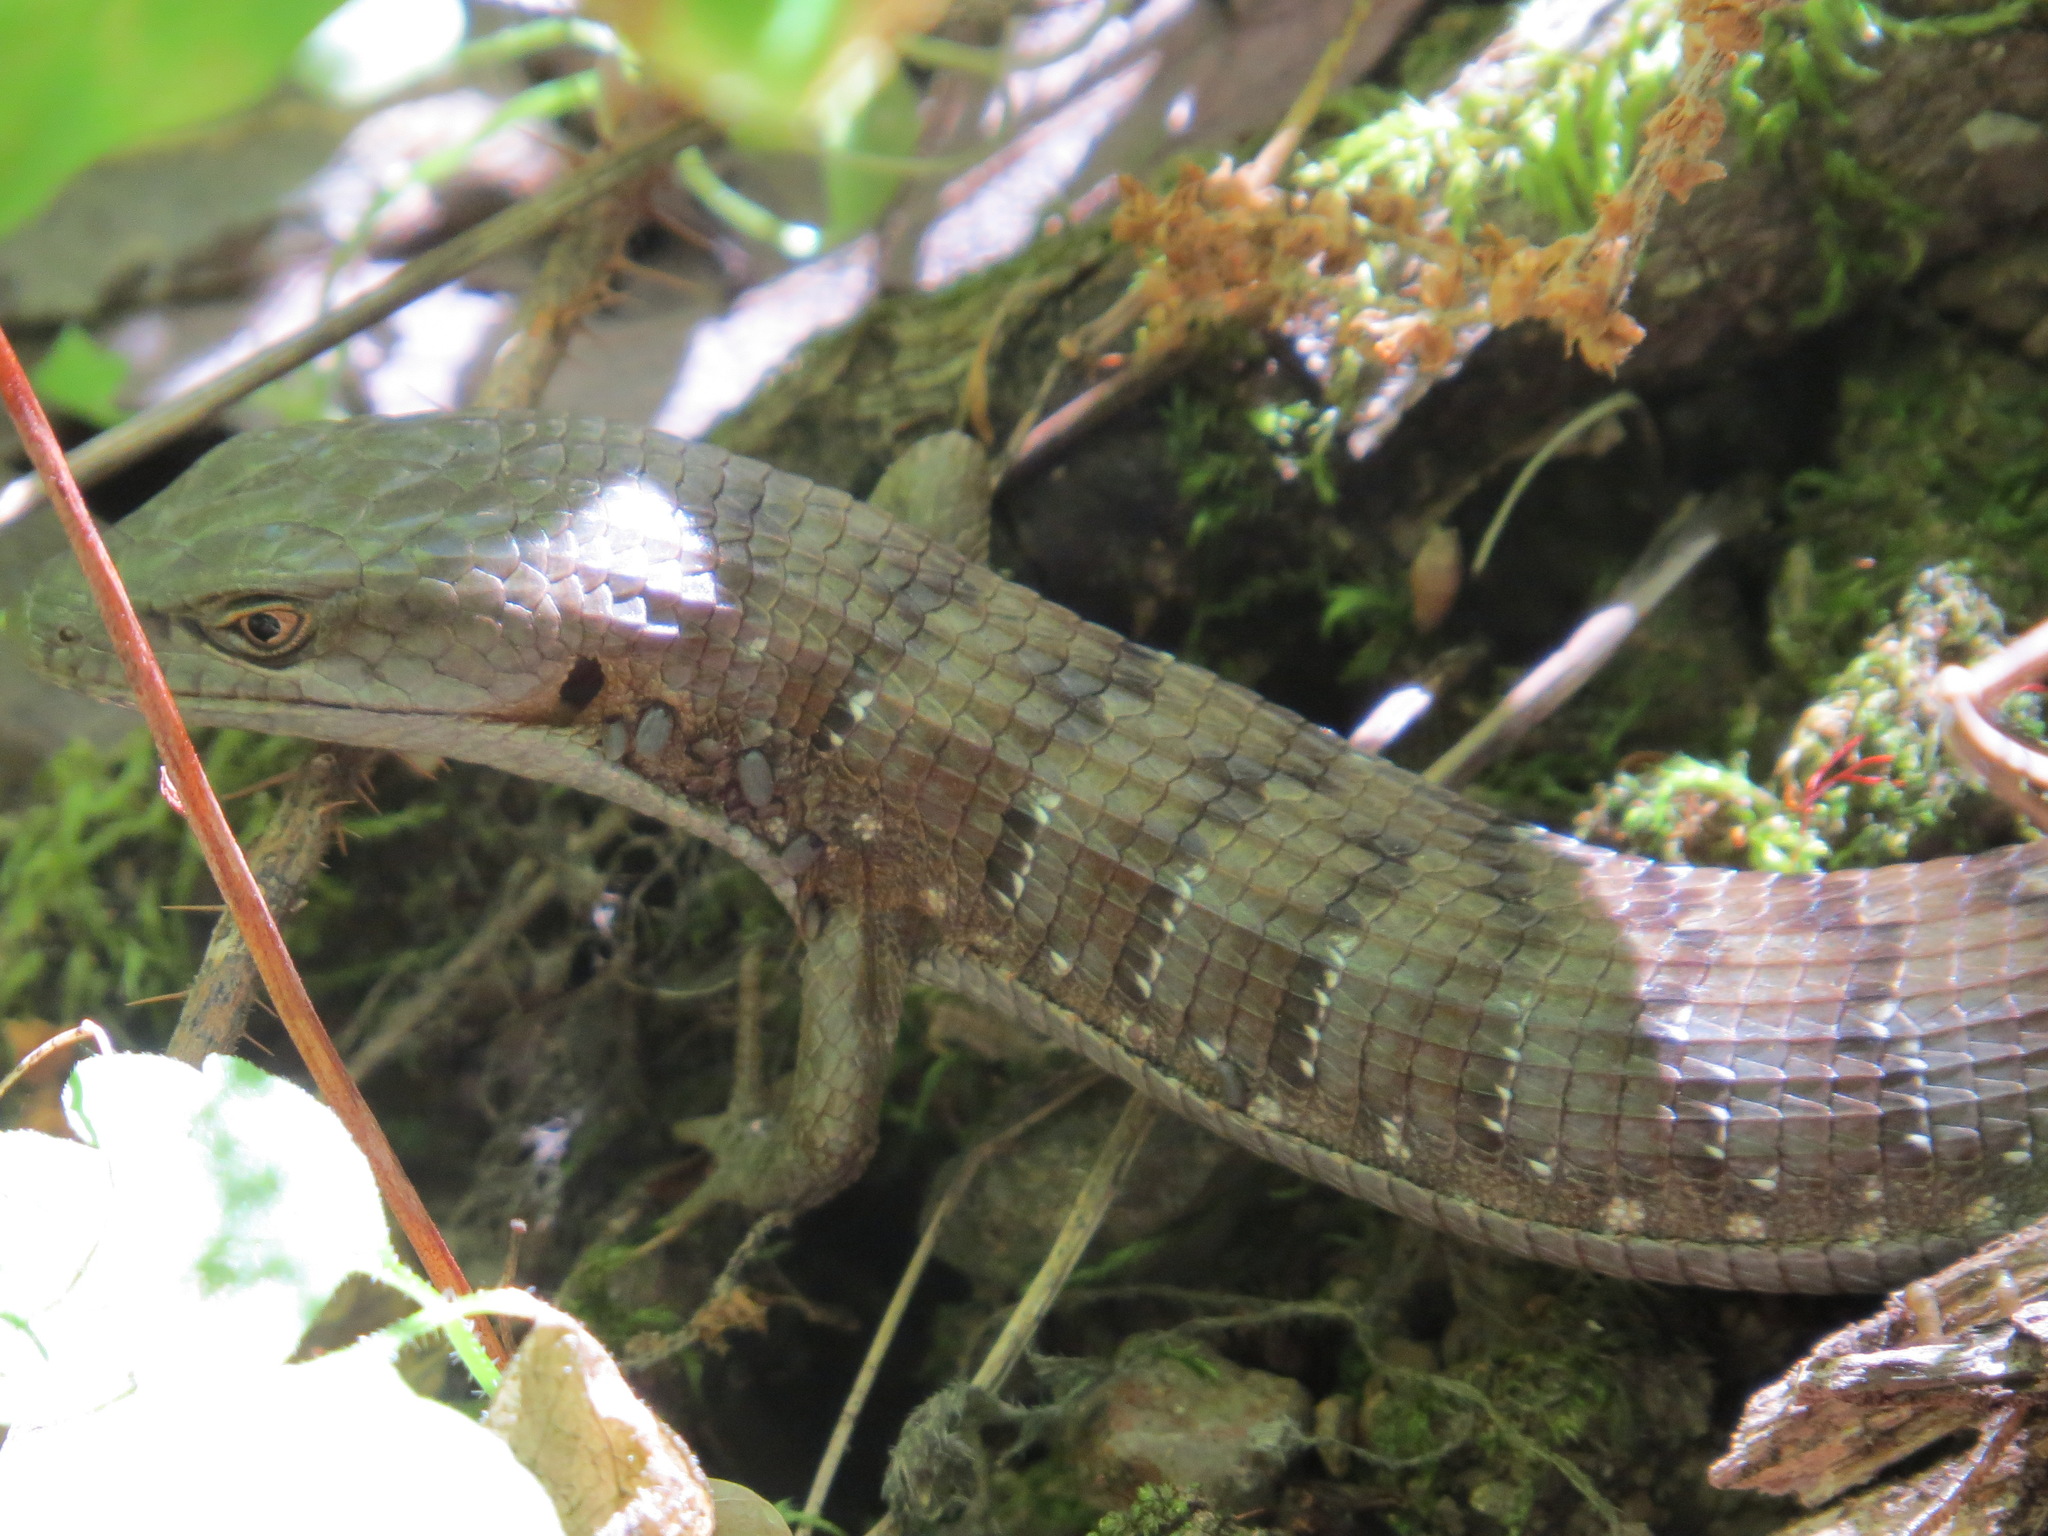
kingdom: Animalia
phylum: Chordata
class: Squamata
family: Anguidae
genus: Elgaria
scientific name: Elgaria multicarinata
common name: Southern alligator lizard
